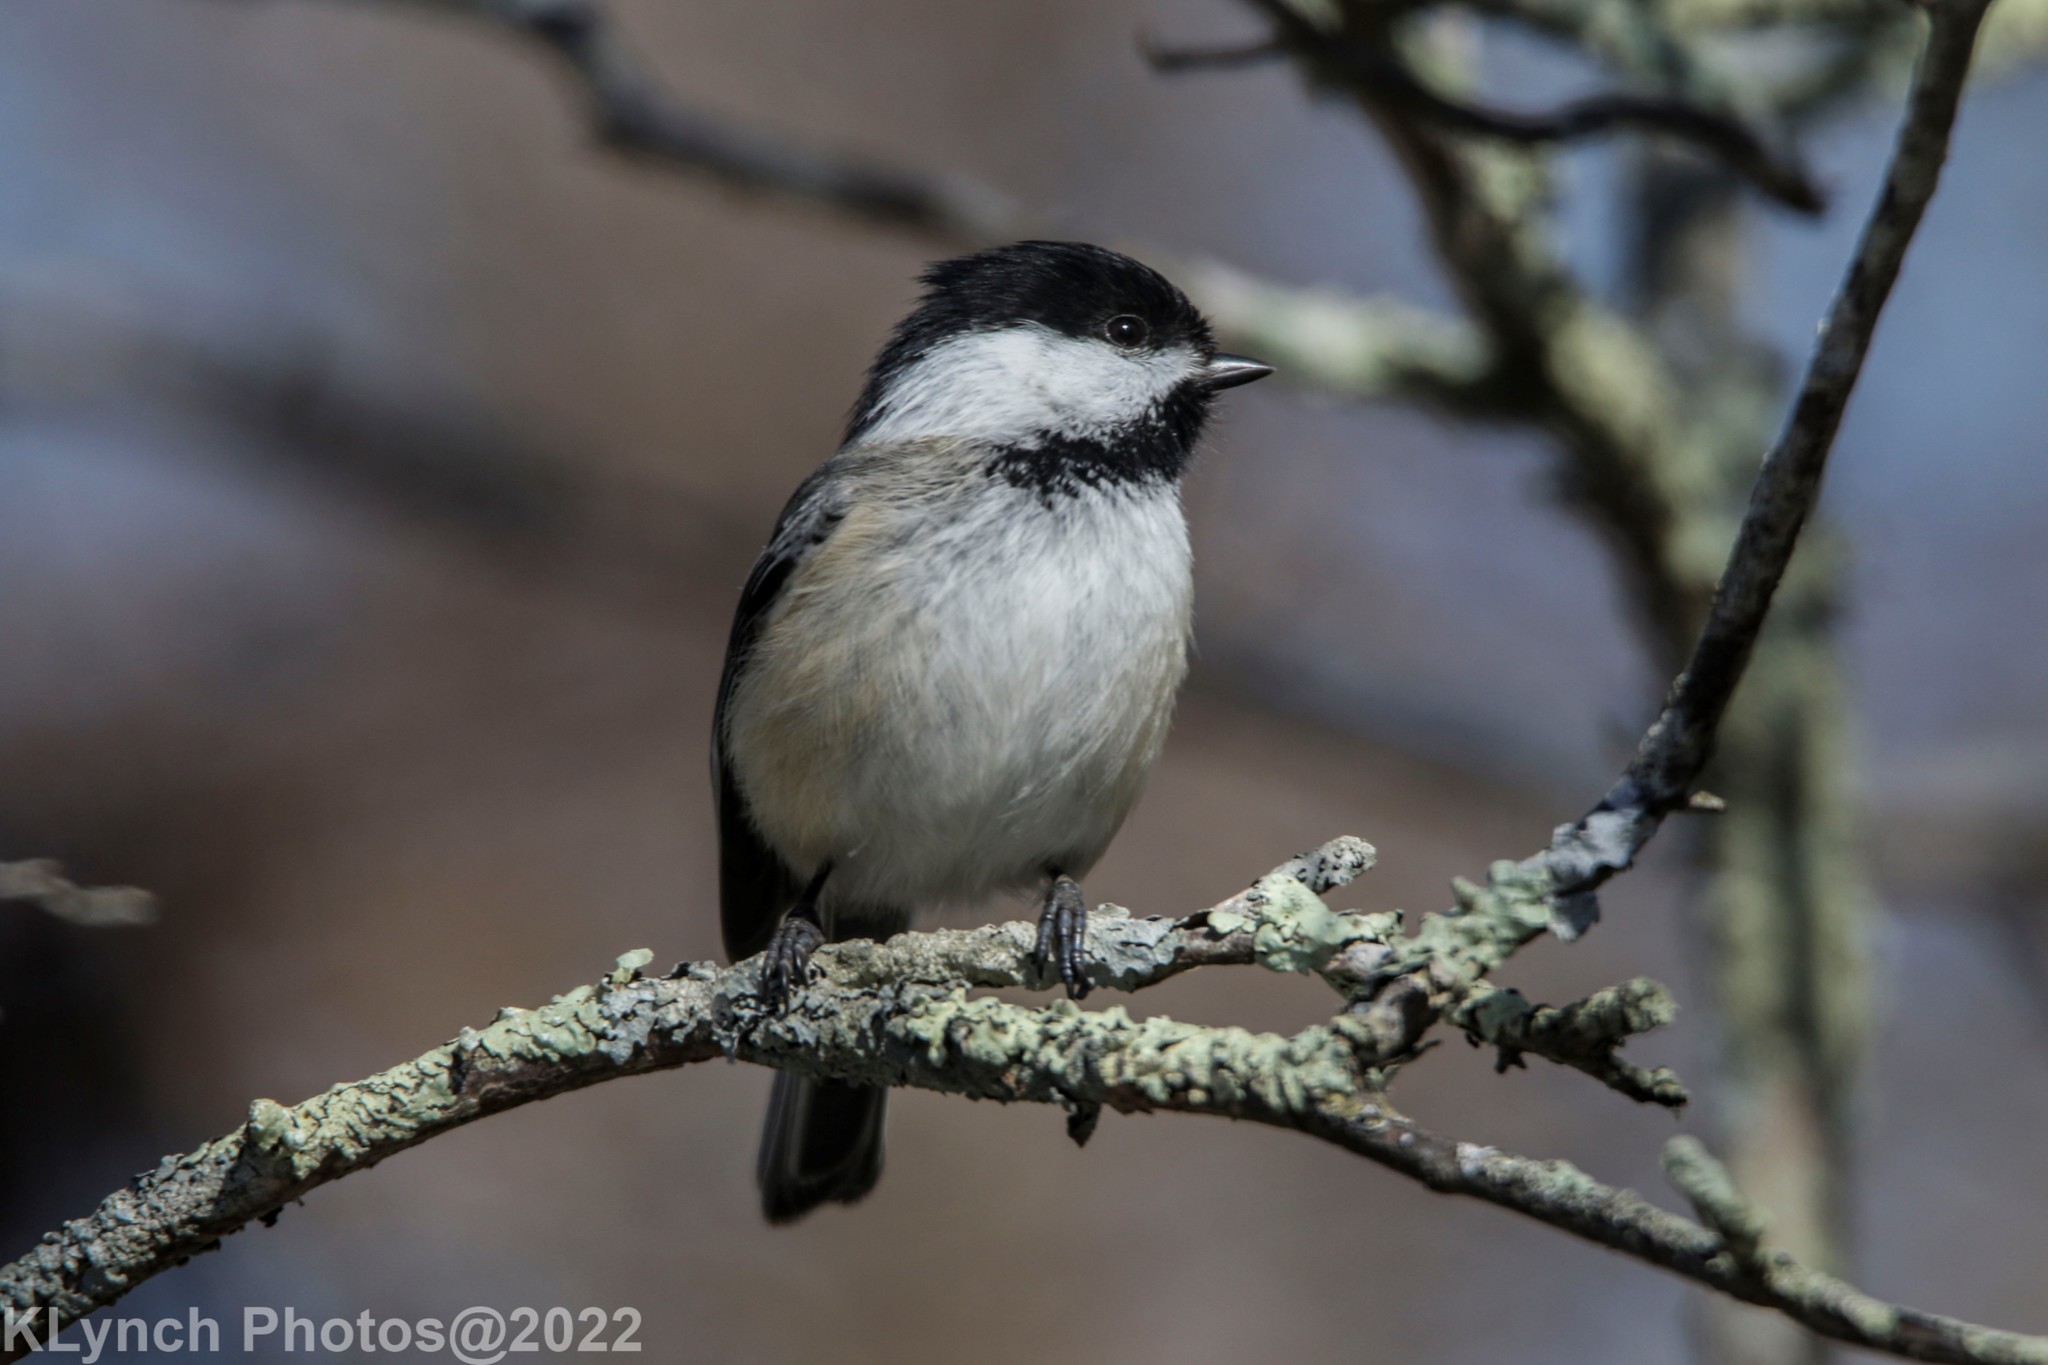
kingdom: Animalia
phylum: Chordata
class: Aves
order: Passeriformes
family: Paridae
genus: Poecile
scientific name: Poecile atricapillus
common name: Black-capped chickadee
